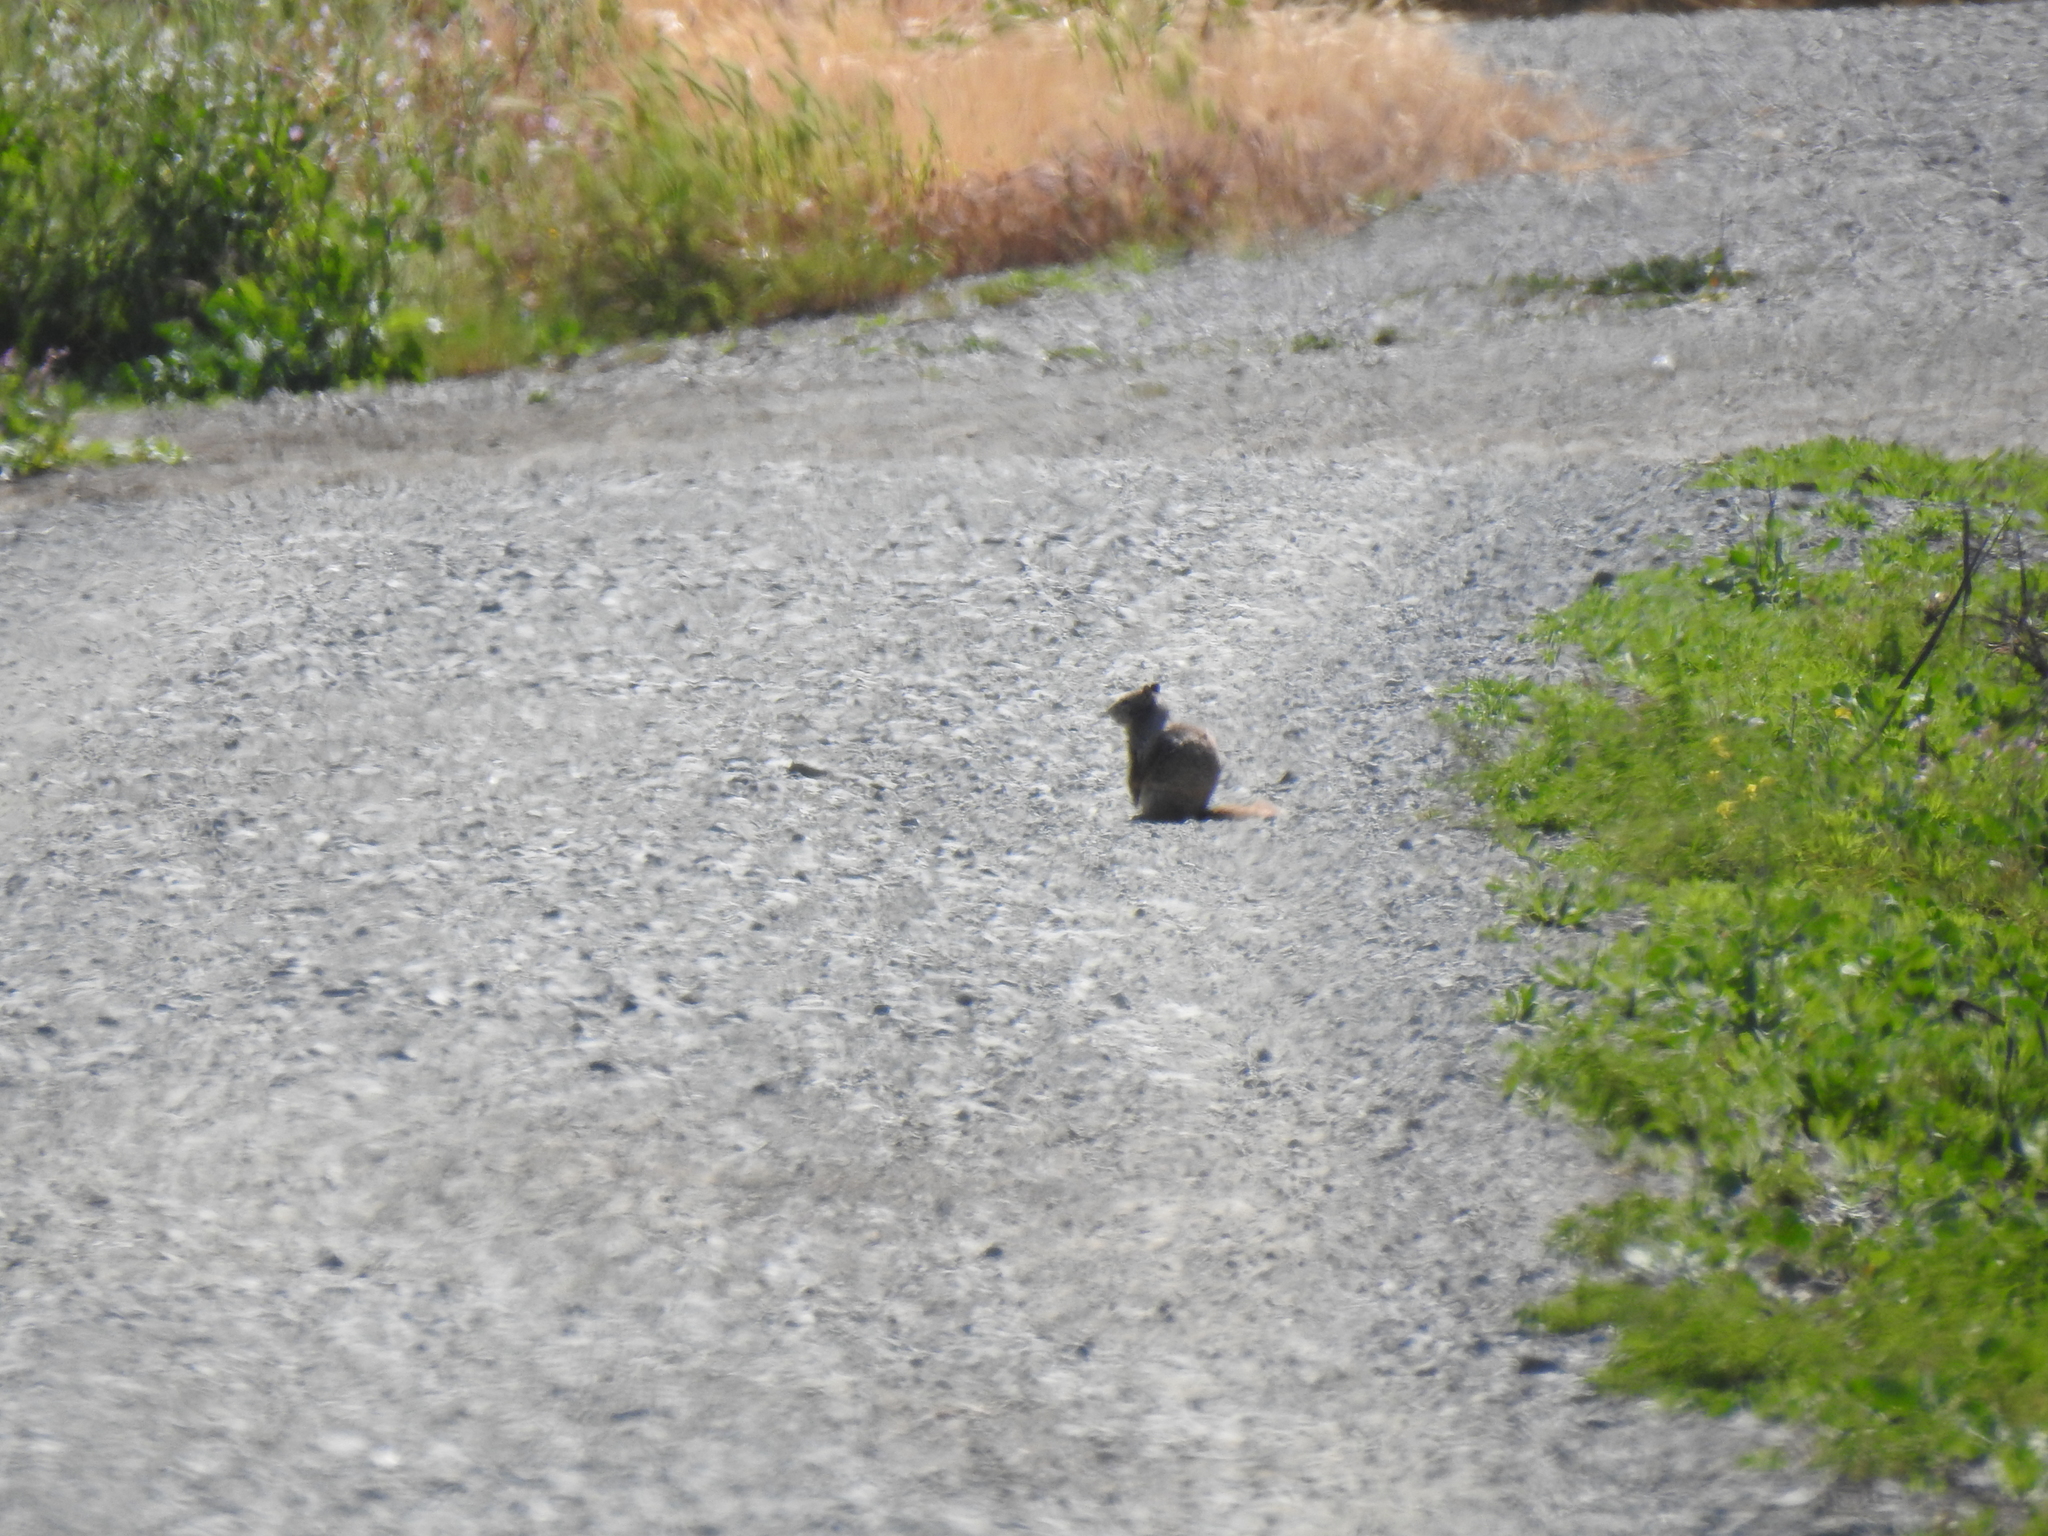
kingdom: Animalia
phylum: Chordata
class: Mammalia
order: Rodentia
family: Sciuridae
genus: Otospermophilus
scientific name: Otospermophilus beecheyi
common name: California ground squirrel
